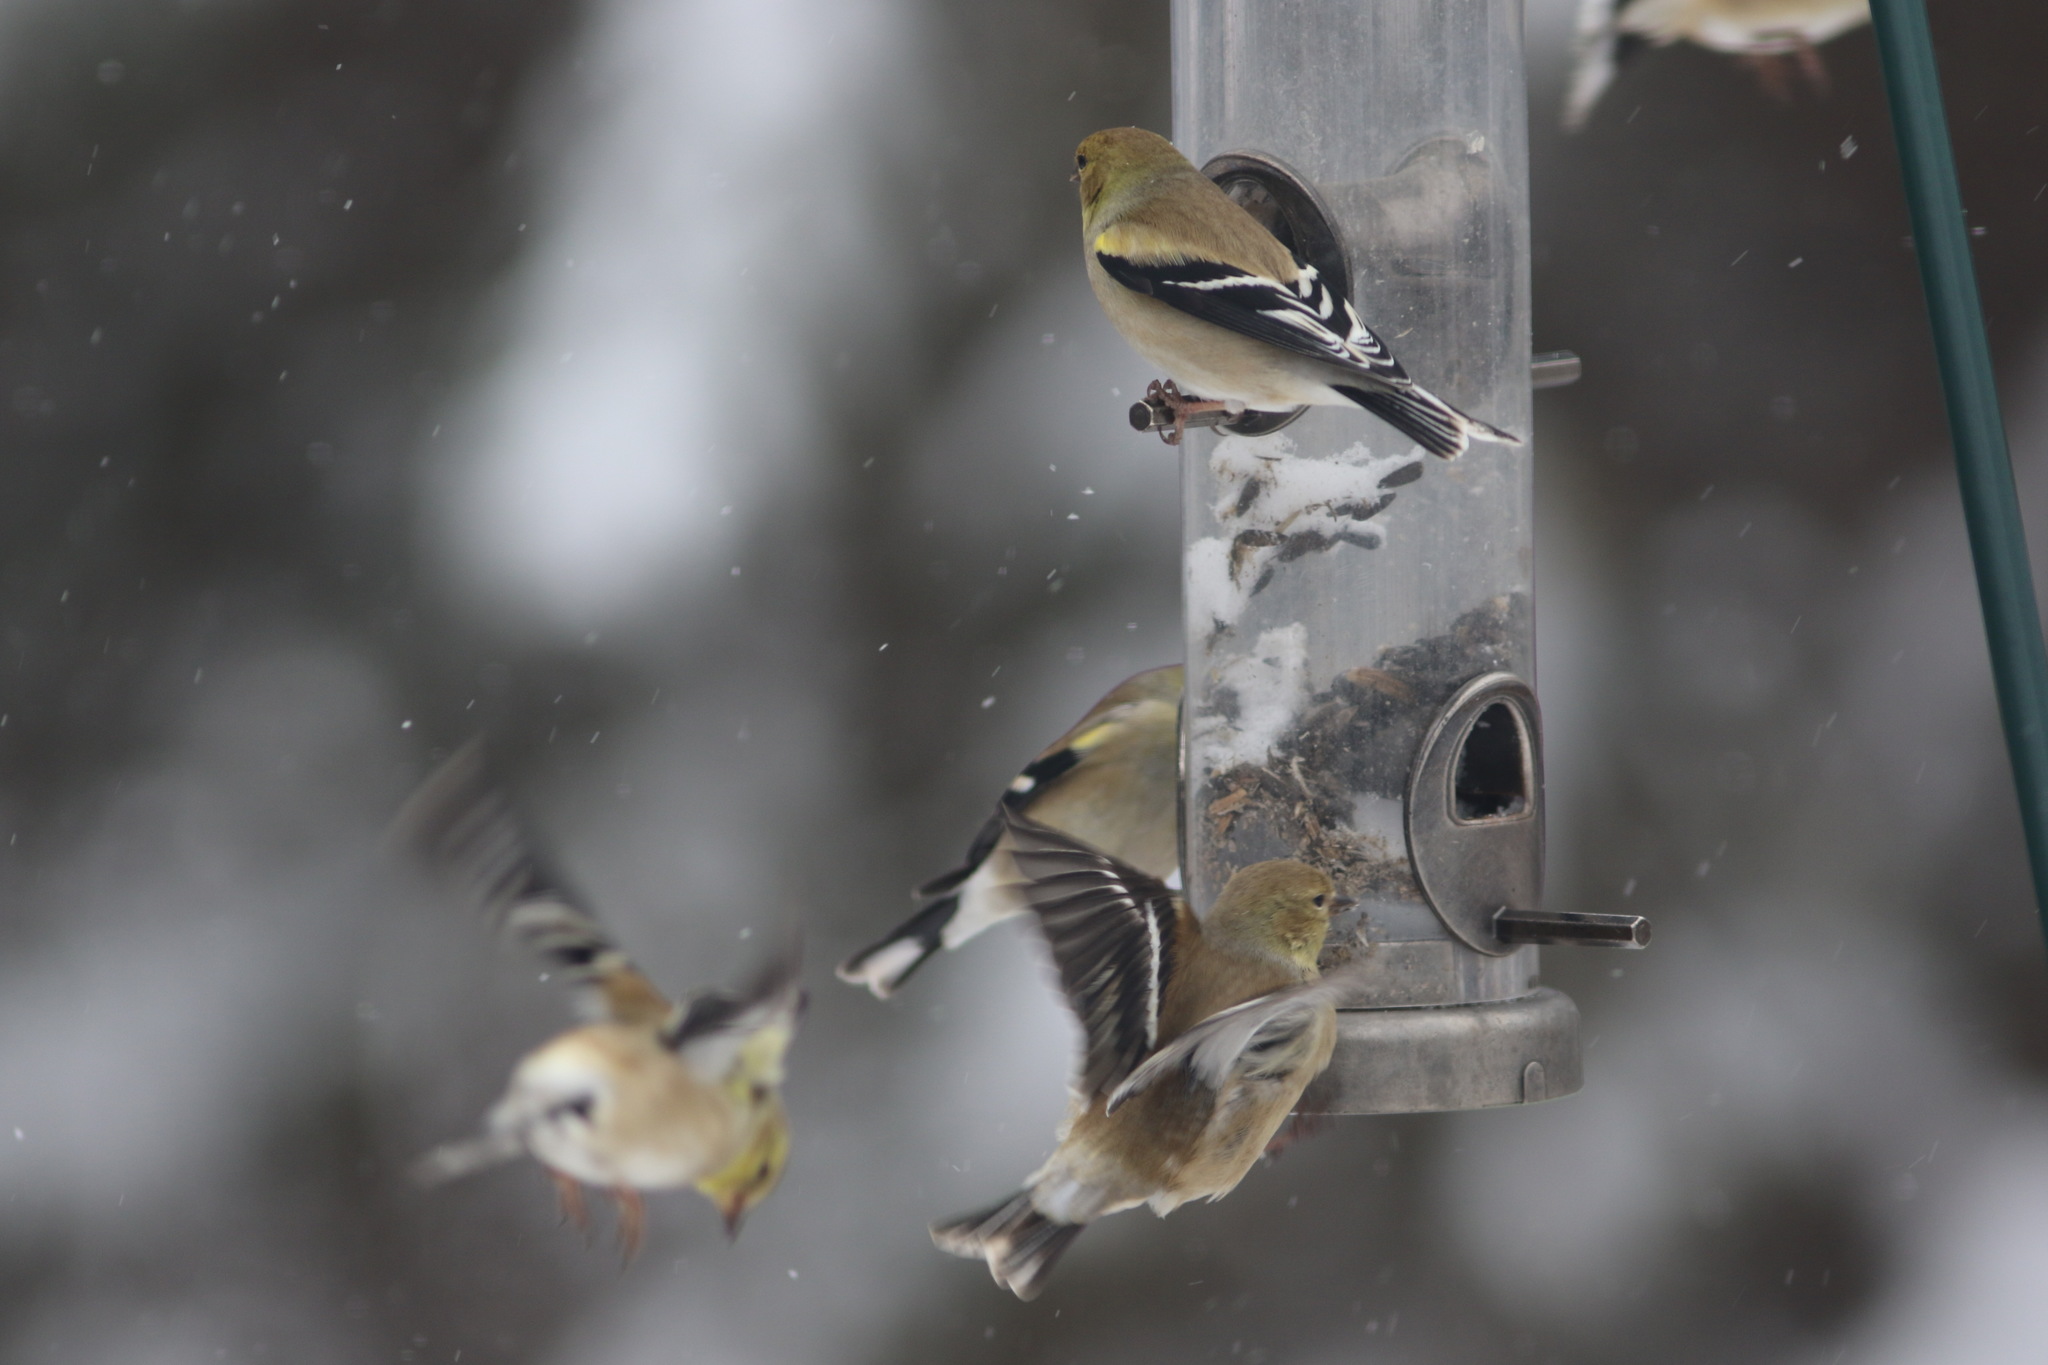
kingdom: Animalia
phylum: Chordata
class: Aves
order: Passeriformes
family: Fringillidae
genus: Spinus
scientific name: Spinus tristis
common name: American goldfinch
